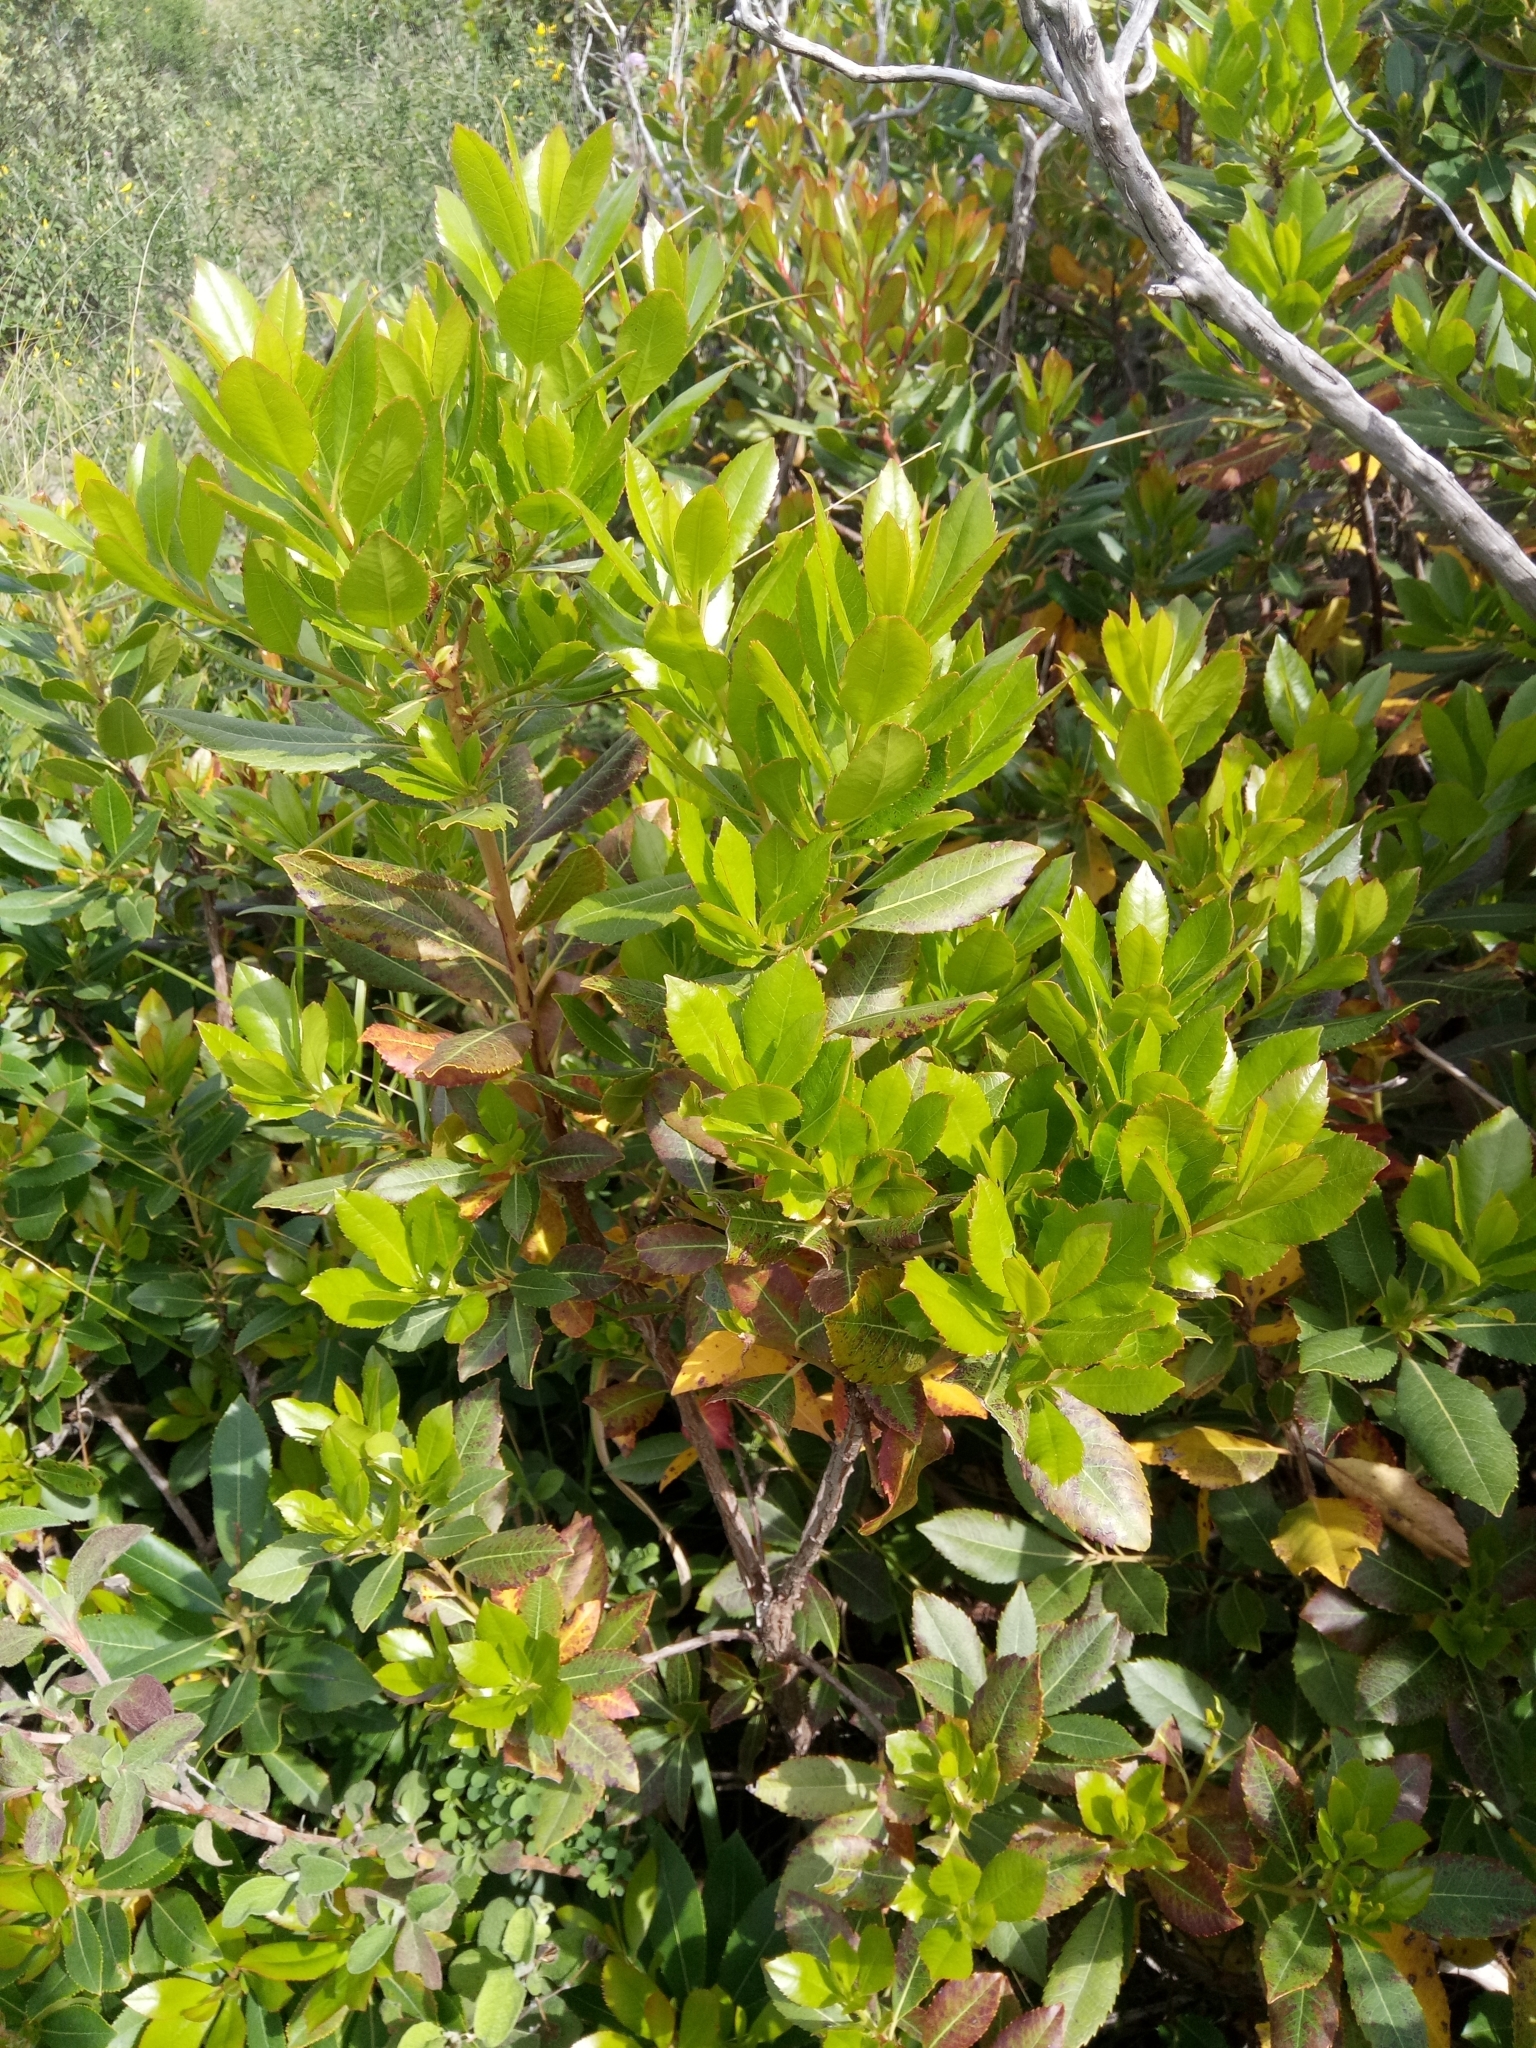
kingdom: Plantae
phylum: Tracheophyta
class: Magnoliopsida
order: Ericales
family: Ericaceae
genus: Arbutus
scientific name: Arbutus unedo
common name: Strawberry-tree
